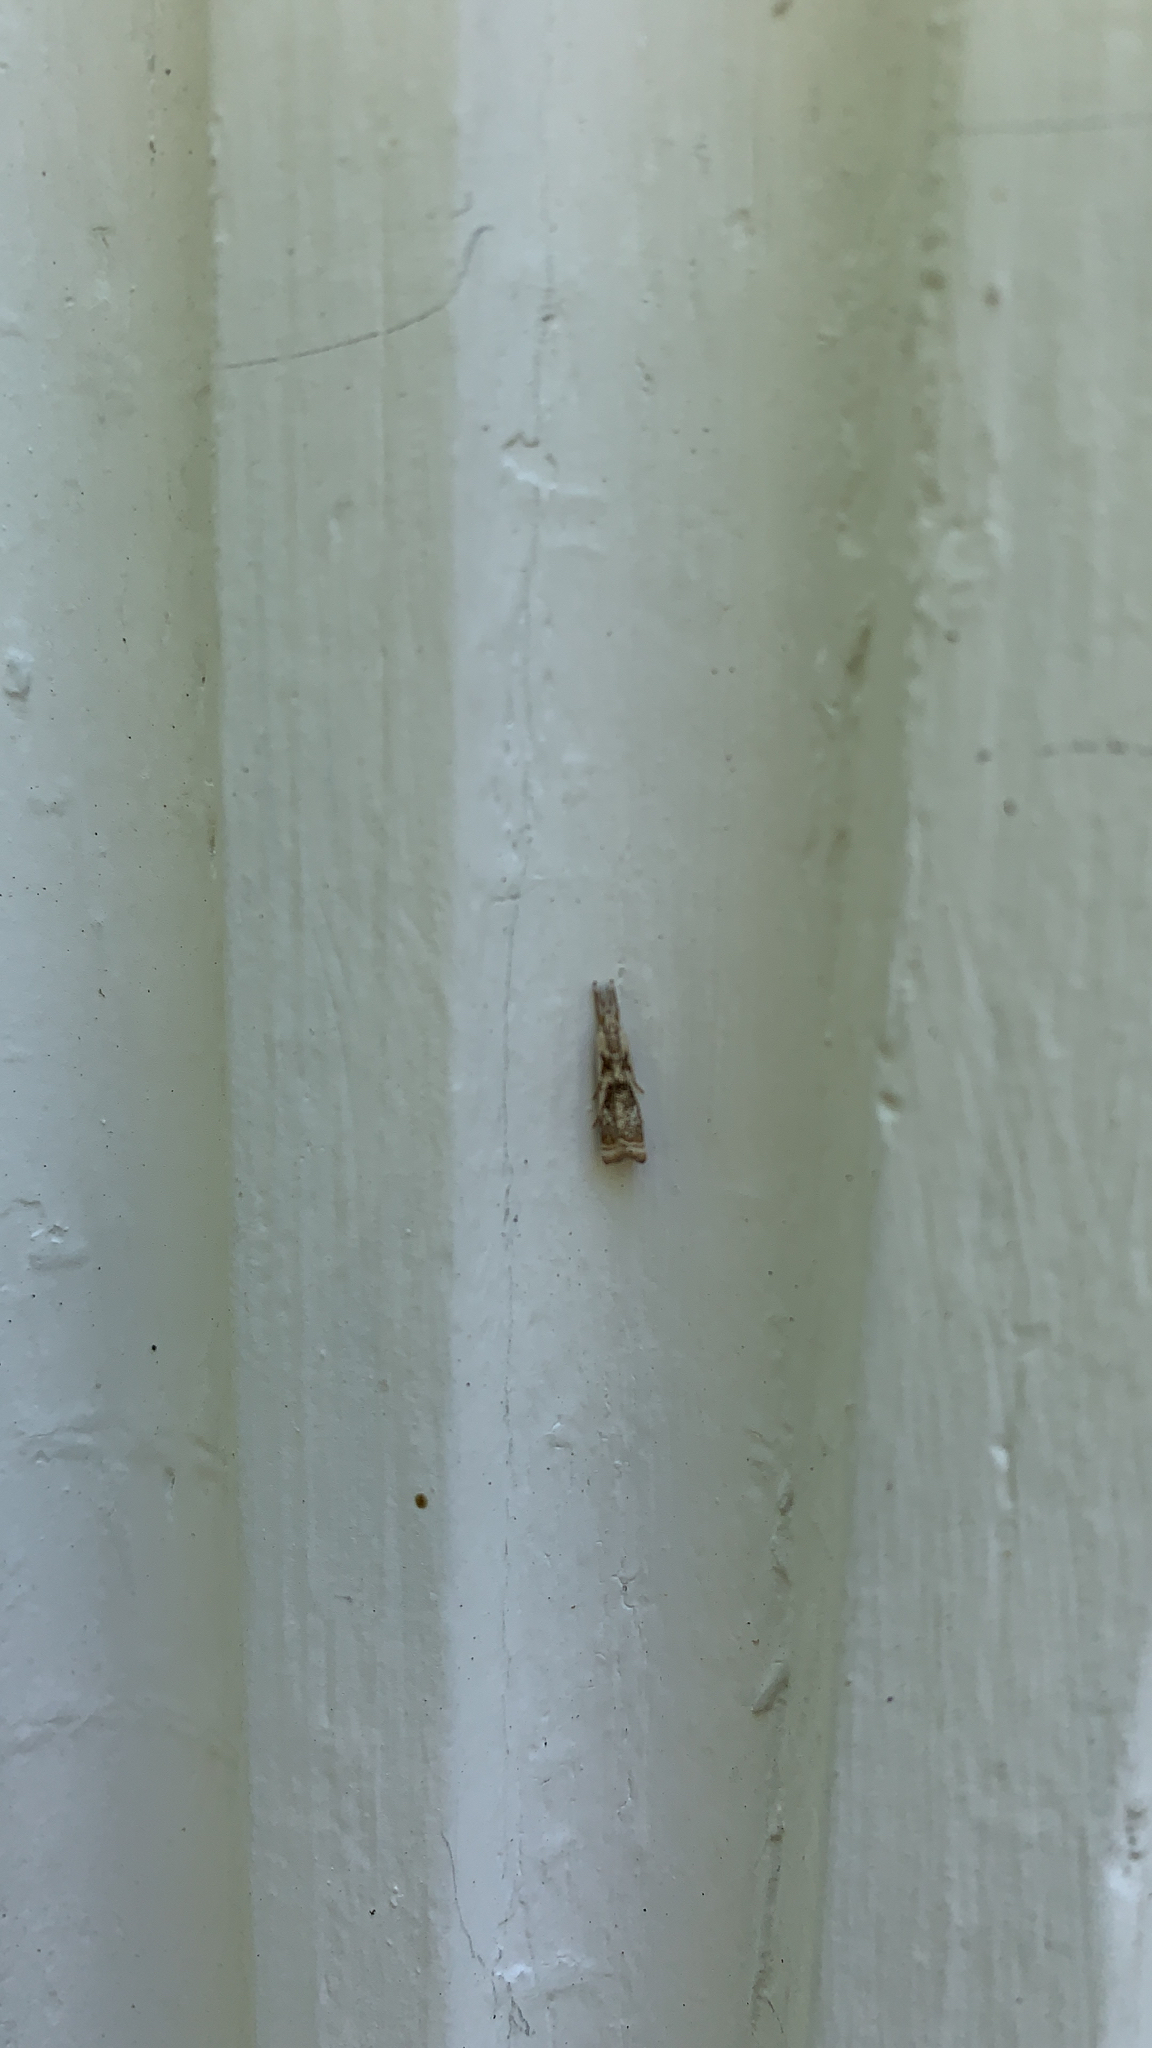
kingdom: Animalia
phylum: Arthropoda
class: Insecta
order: Lepidoptera
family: Crambidae
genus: Microcrambus
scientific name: Microcrambus elegans
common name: Elegant grass-veneer
